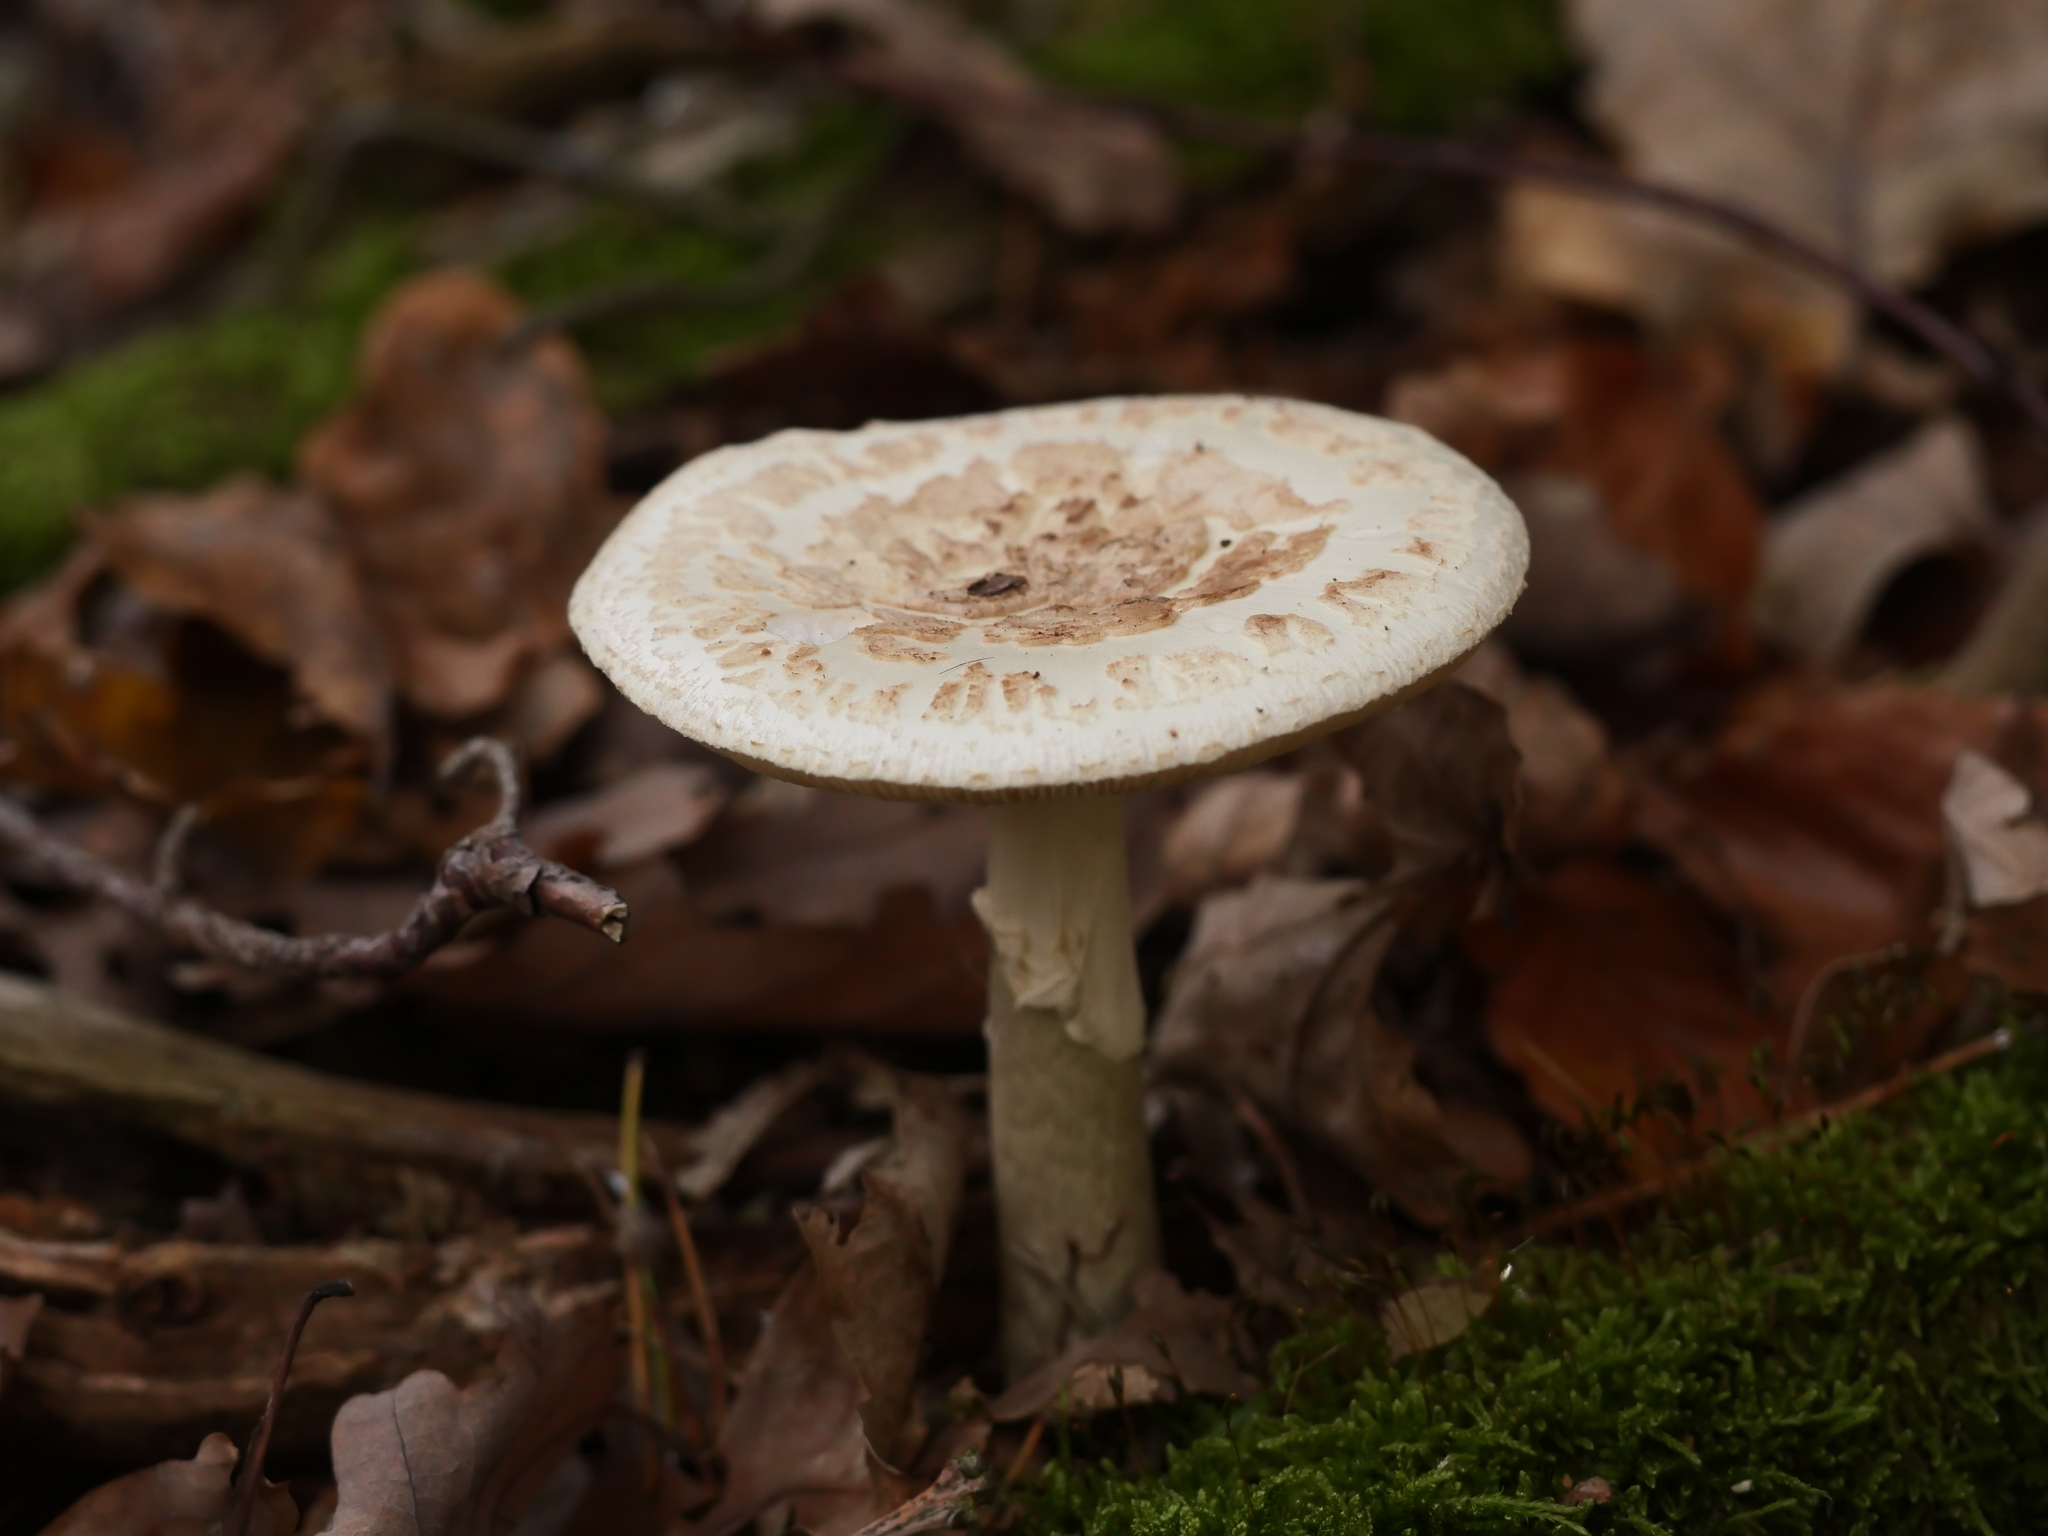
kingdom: Fungi
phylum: Basidiomycota
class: Agaricomycetes
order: Agaricales
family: Amanitaceae
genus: Amanita
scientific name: Amanita citrina
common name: False death-cap
